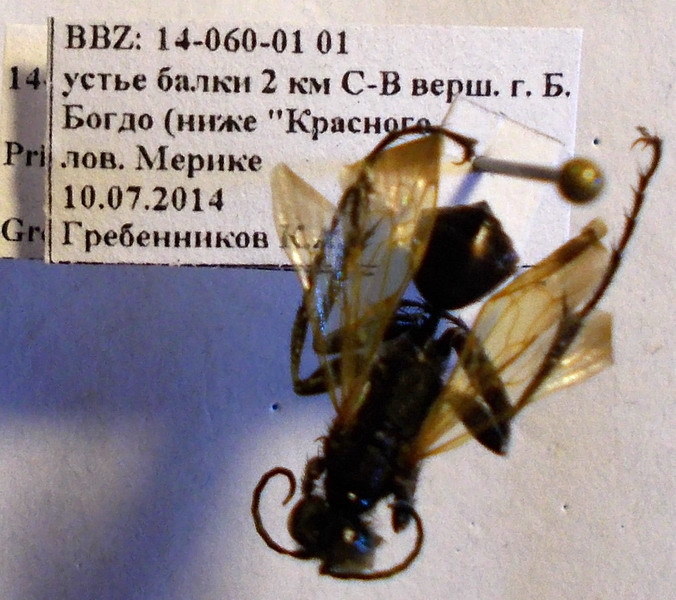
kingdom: Animalia
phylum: Arthropoda
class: Insecta
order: Hymenoptera
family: Sphecidae
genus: Prionyx
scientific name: Prionyx subfuscatus
